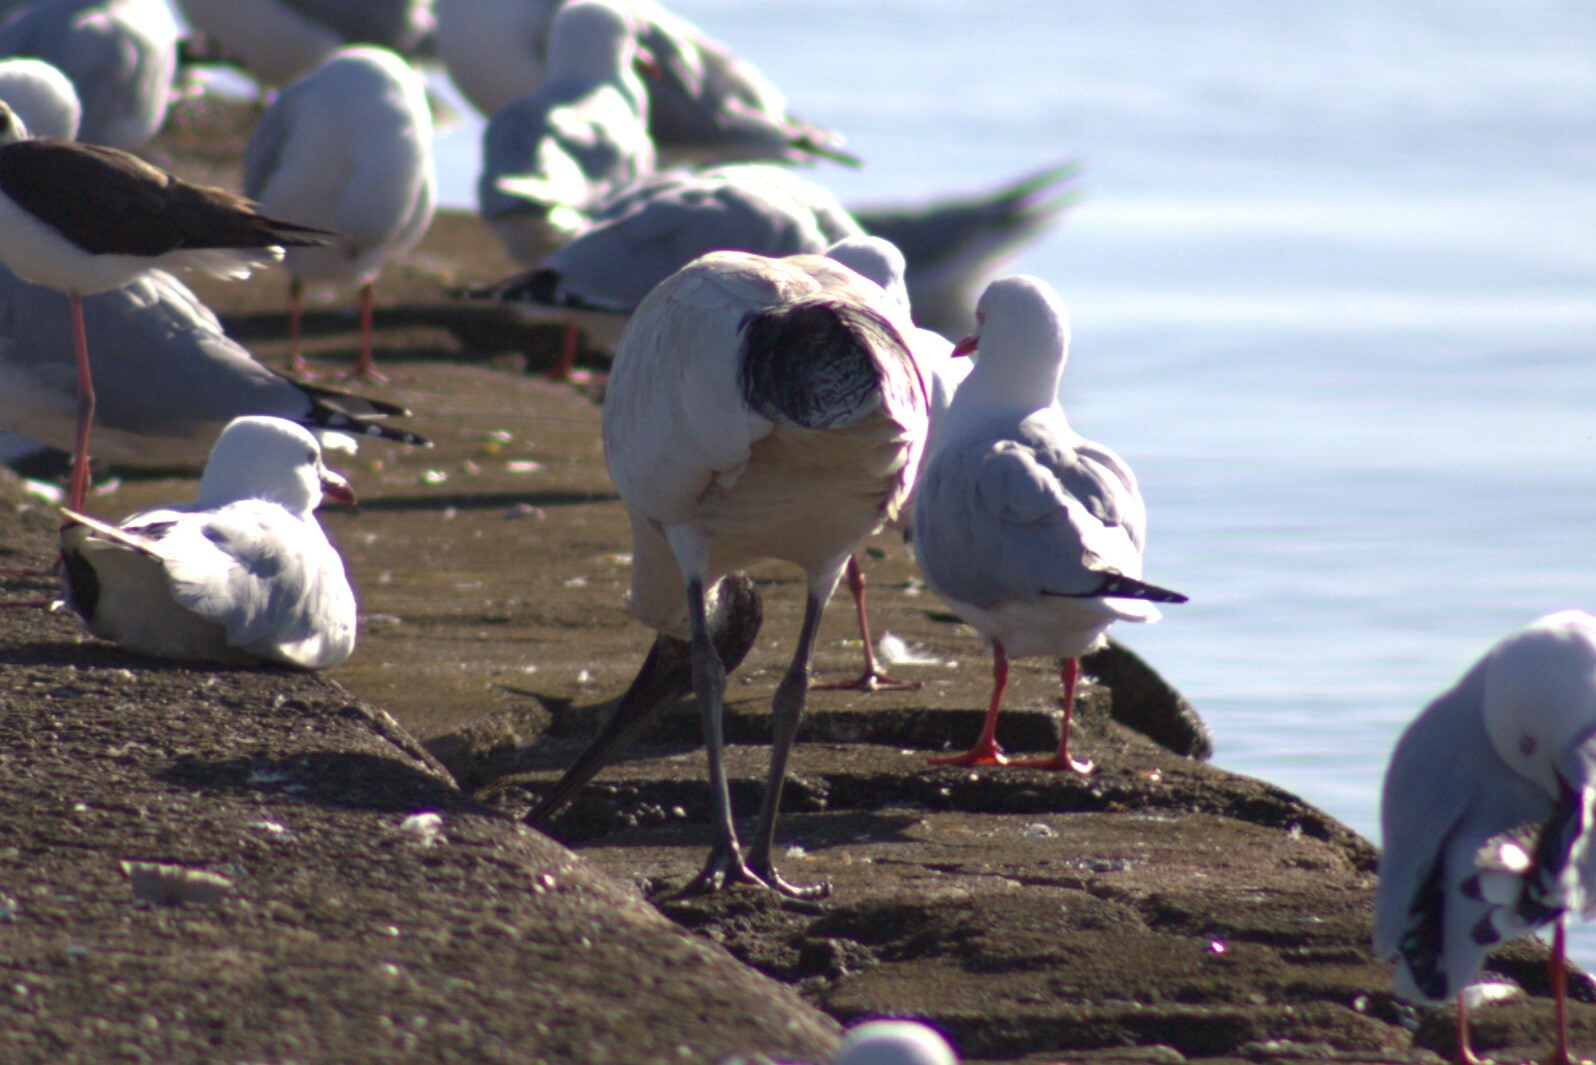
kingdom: Animalia
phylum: Chordata
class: Aves
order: Pelecaniformes
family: Threskiornithidae
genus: Threskiornis
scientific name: Threskiornis molucca
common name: Australian white ibis
